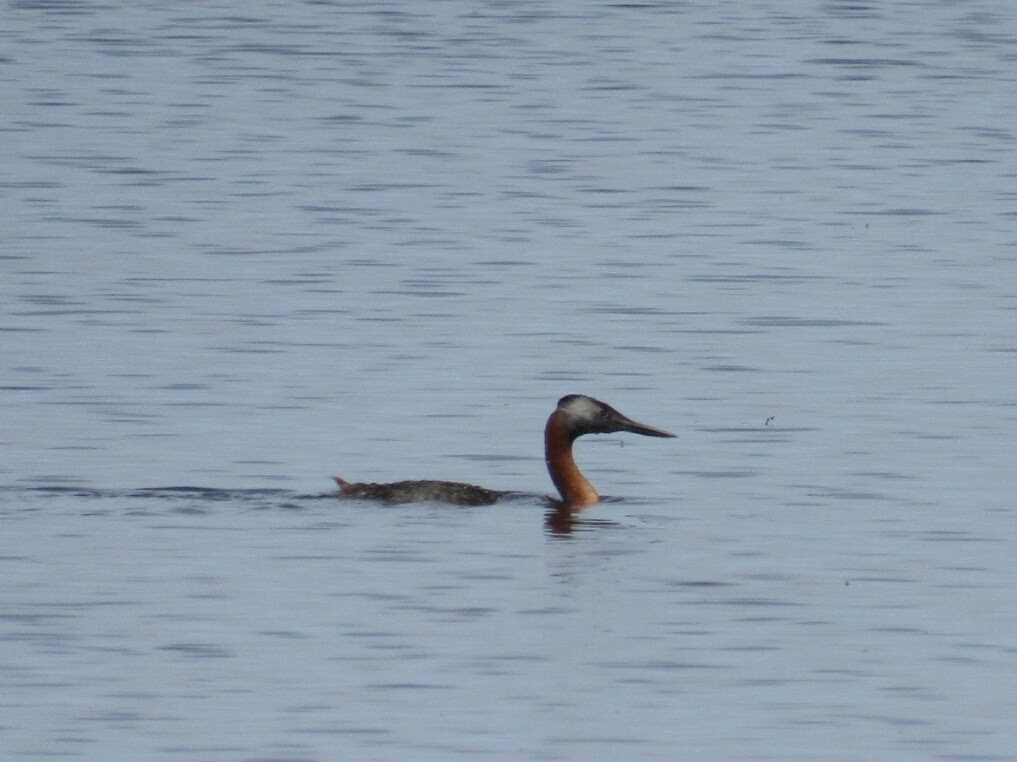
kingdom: Animalia
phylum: Chordata
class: Aves
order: Podicipediformes
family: Podicipedidae
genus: Podiceps
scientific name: Podiceps major
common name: Great grebe
